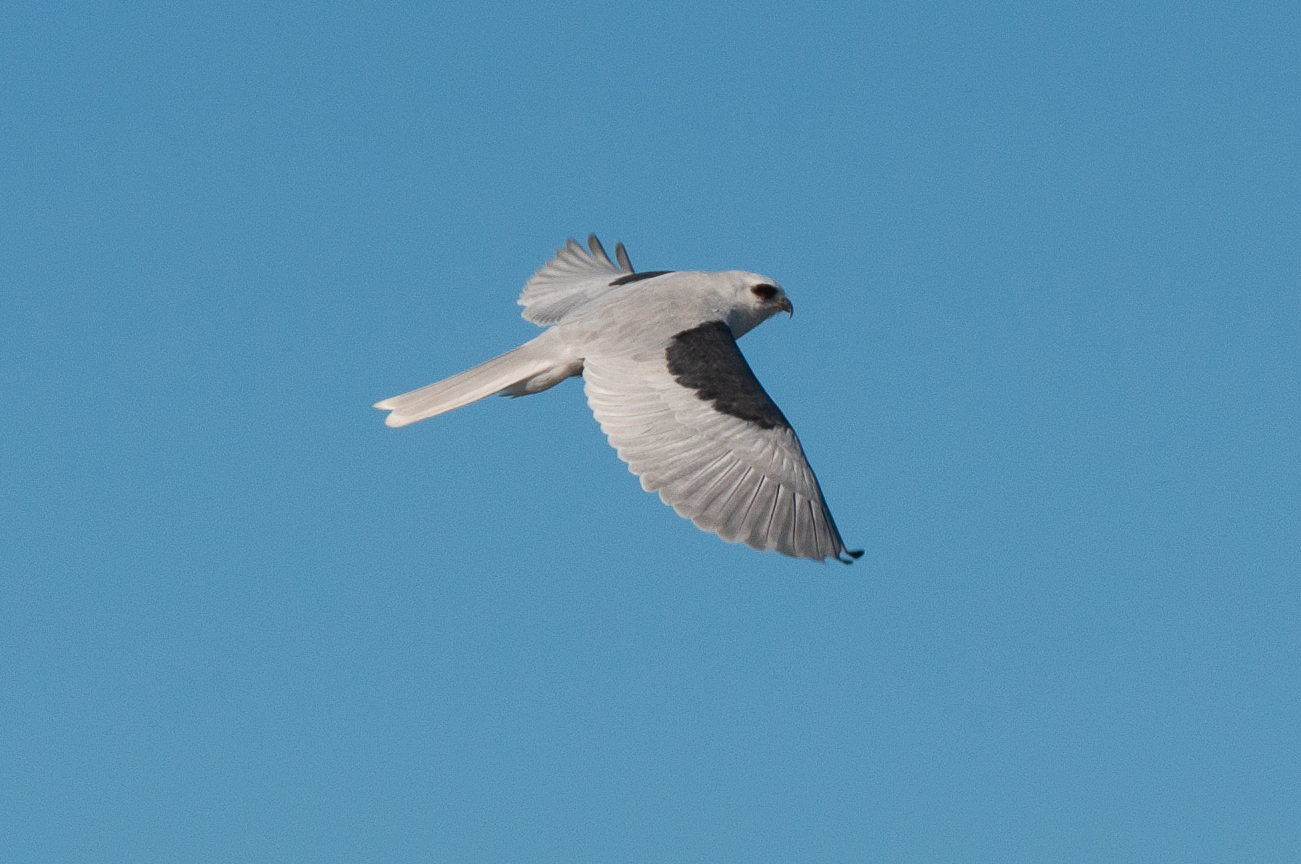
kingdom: Animalia
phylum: Chordata
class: Aves
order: Accipitriformes
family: Accipitridae
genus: Elanus
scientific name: Elanus leucurus
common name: White-tailed kite
